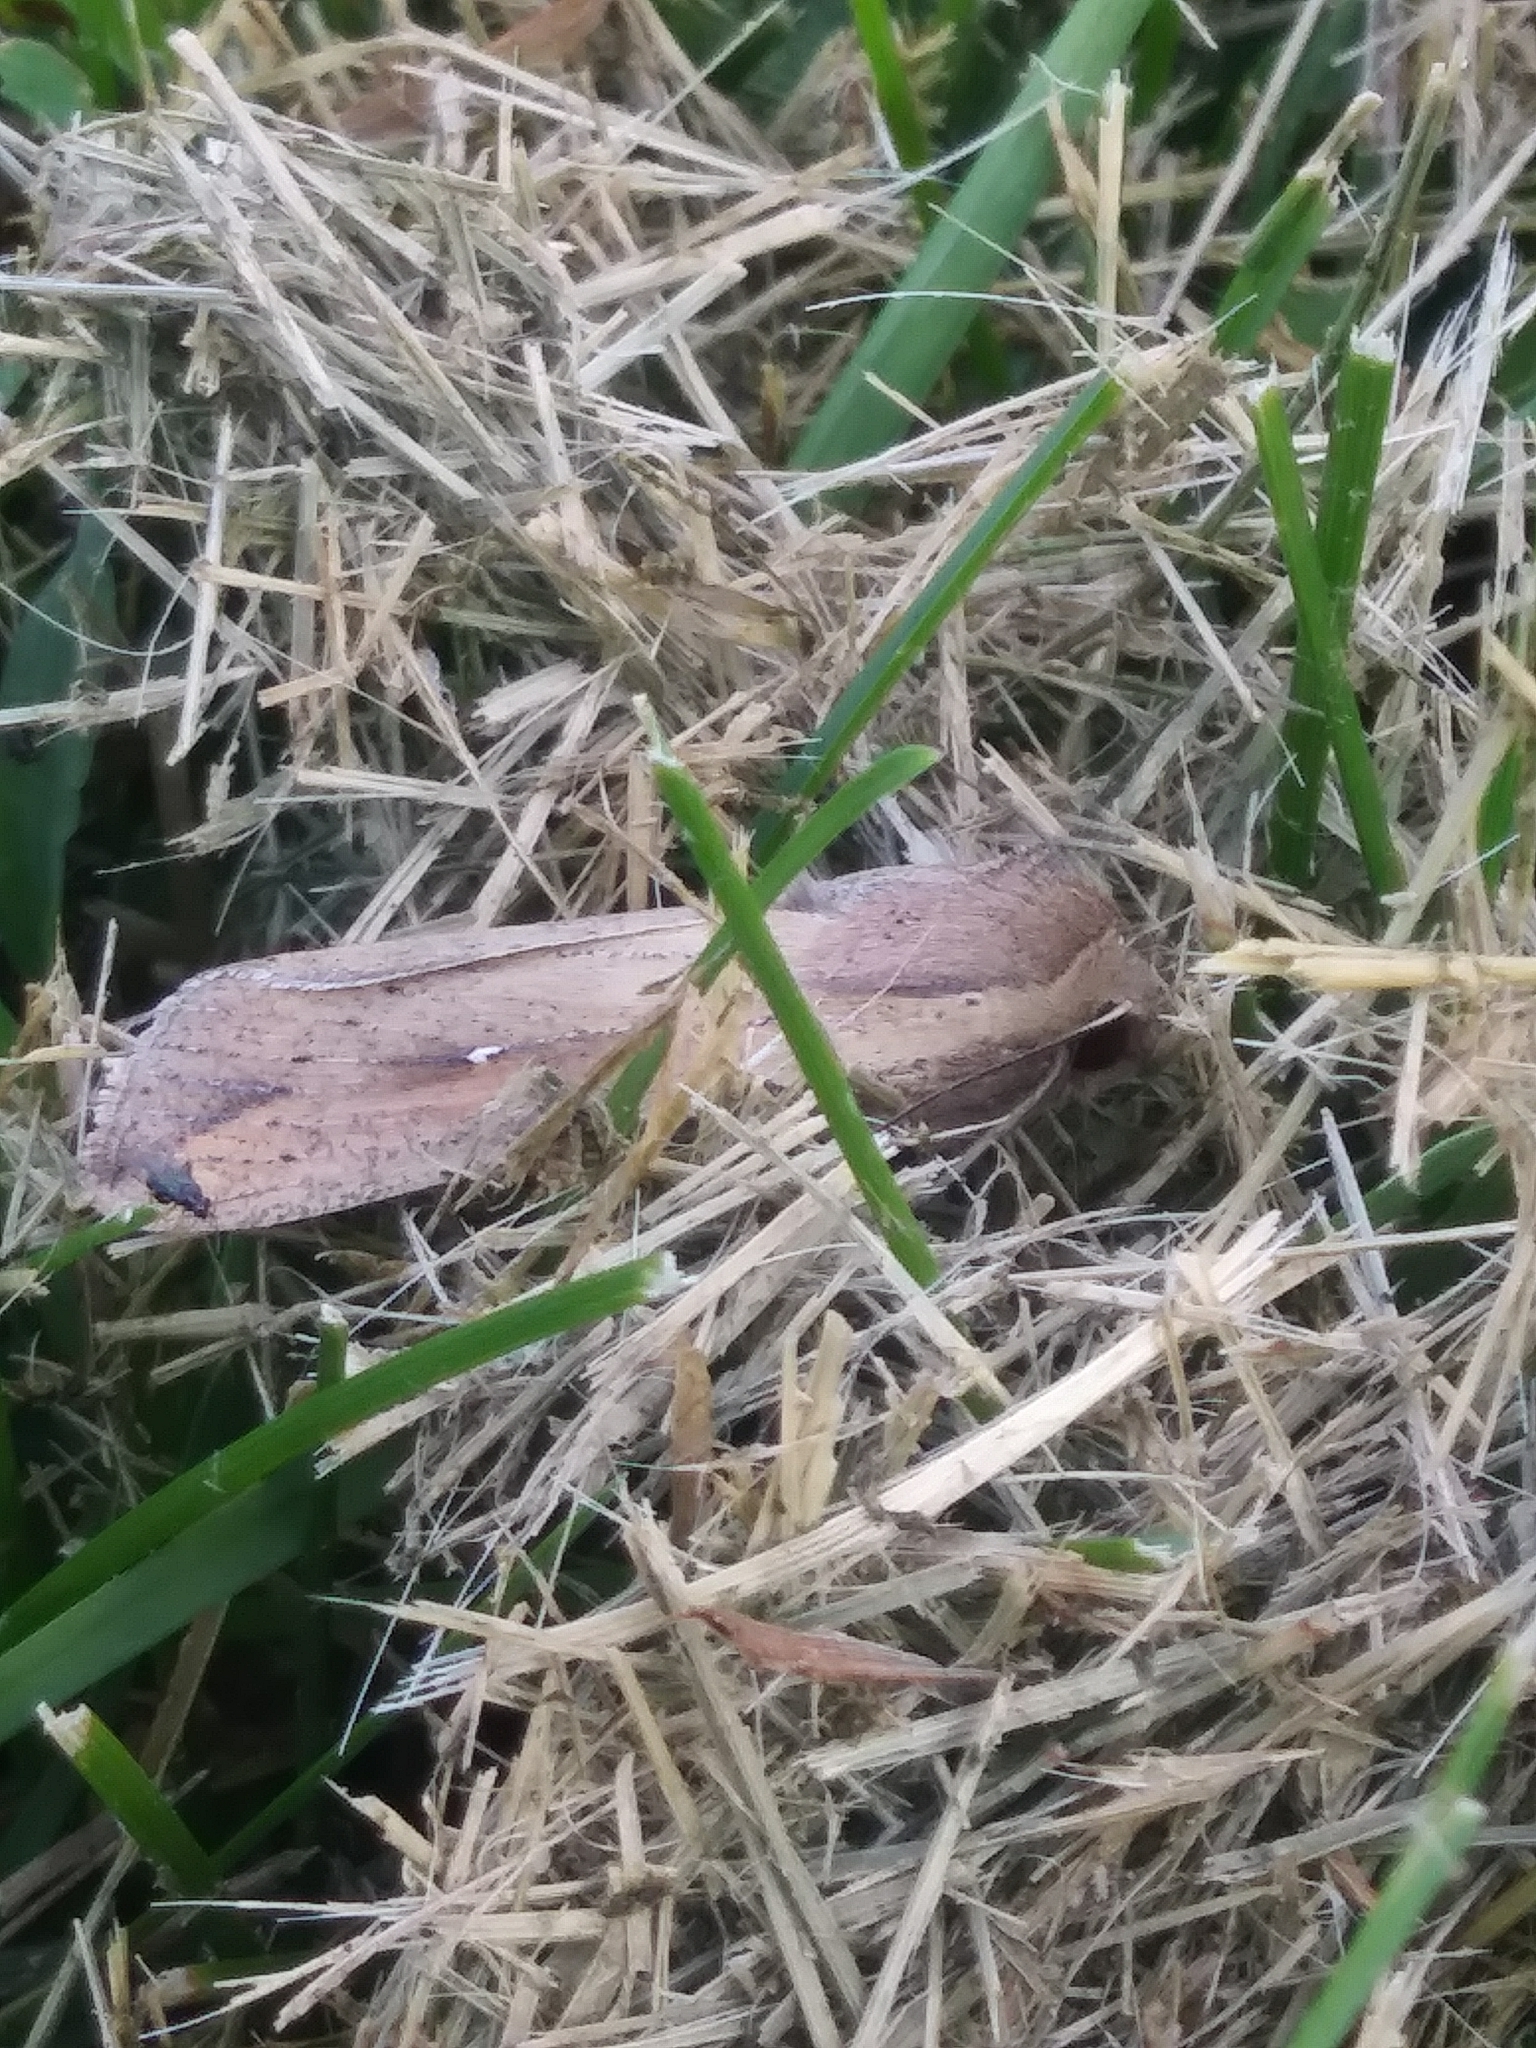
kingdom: Animalia
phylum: Arthropoda
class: Insecta
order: Lepidoptera
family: Noctuidae
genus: Mythimna
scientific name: Mythimna unipuncta
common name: White-speck
